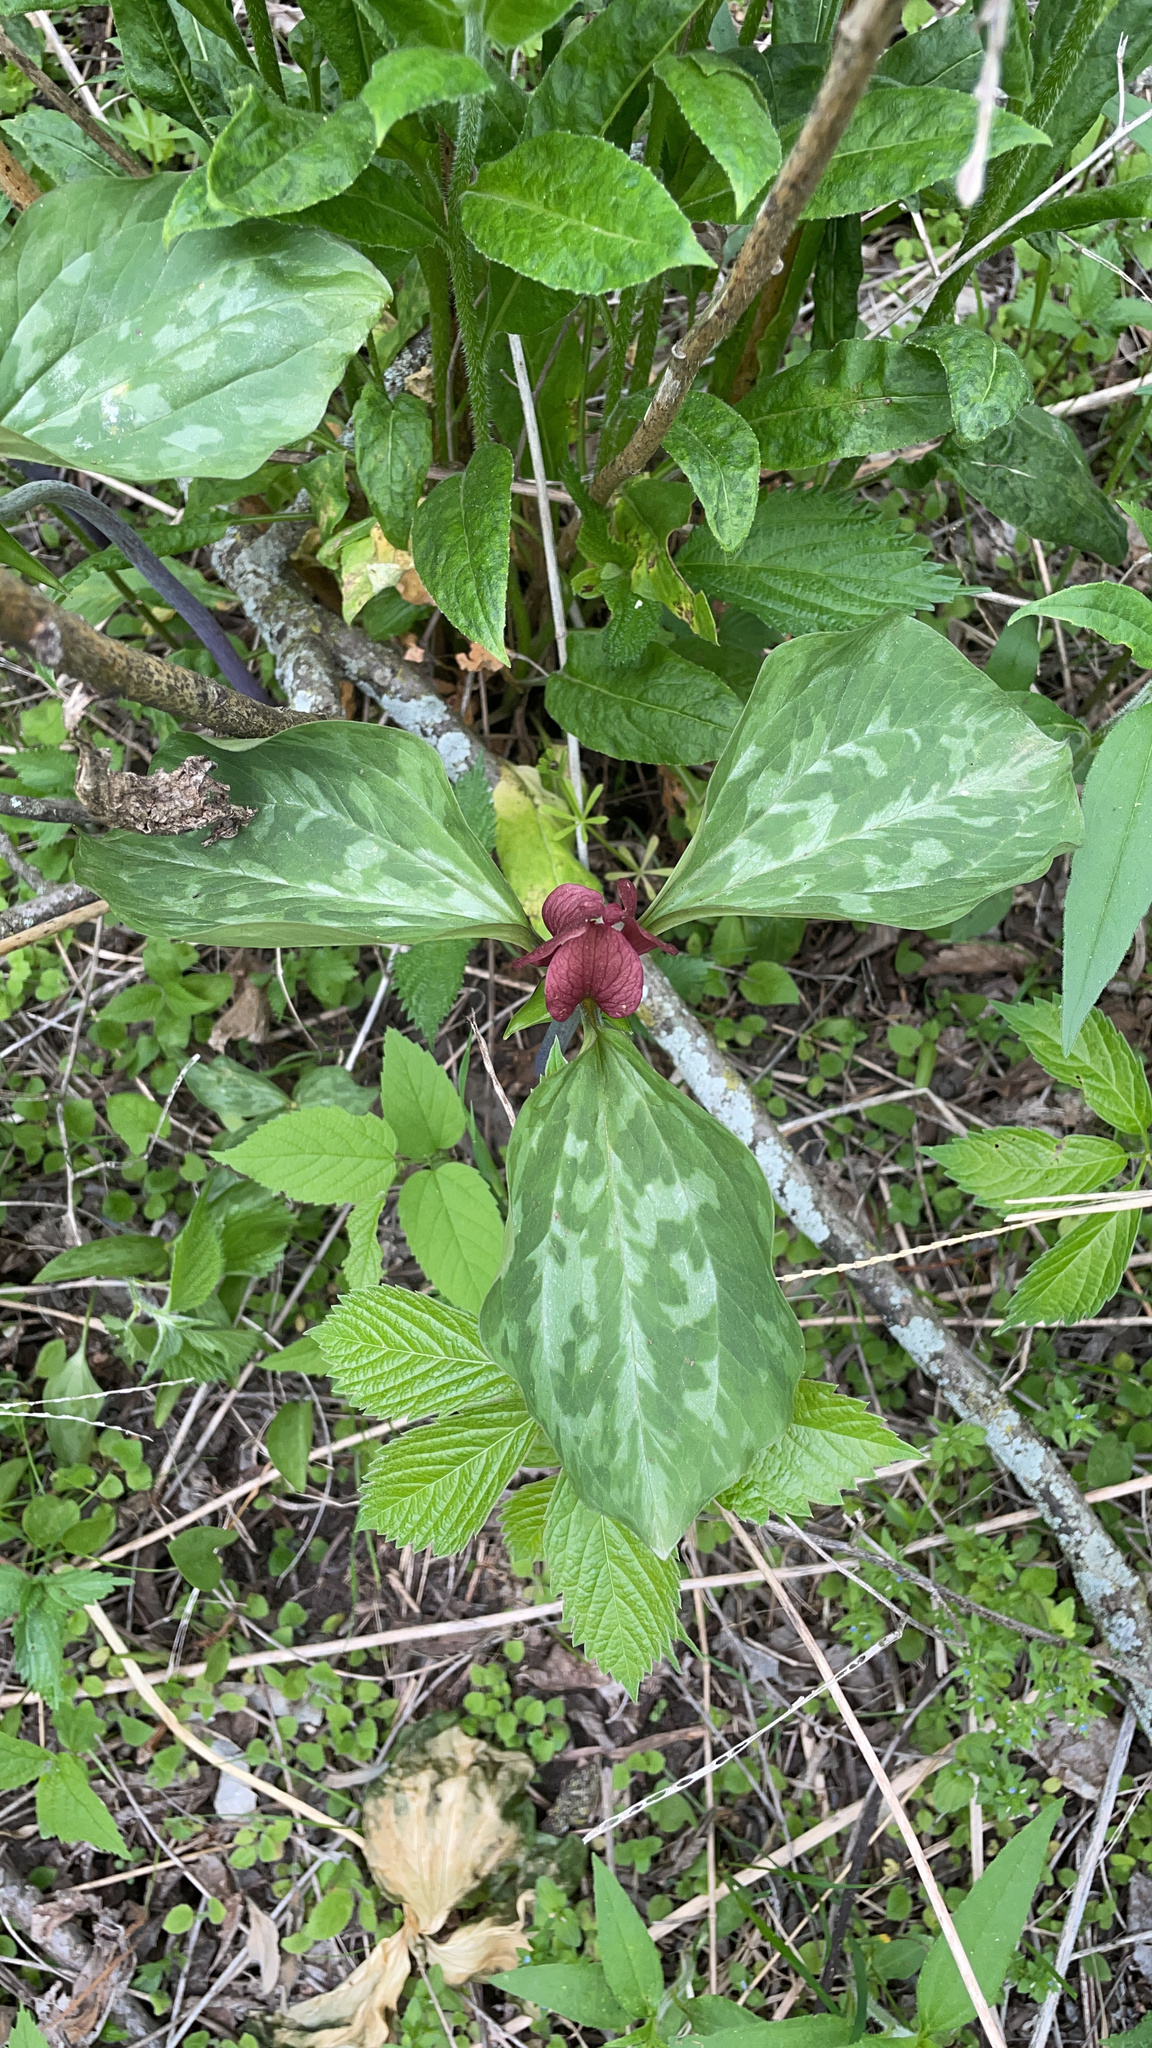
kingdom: Plantae
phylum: Tracheophyta
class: Liliopsida
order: Liliales
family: Melanthiaceae
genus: Trillium
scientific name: Trillium recurvatum
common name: Bloody butcher
